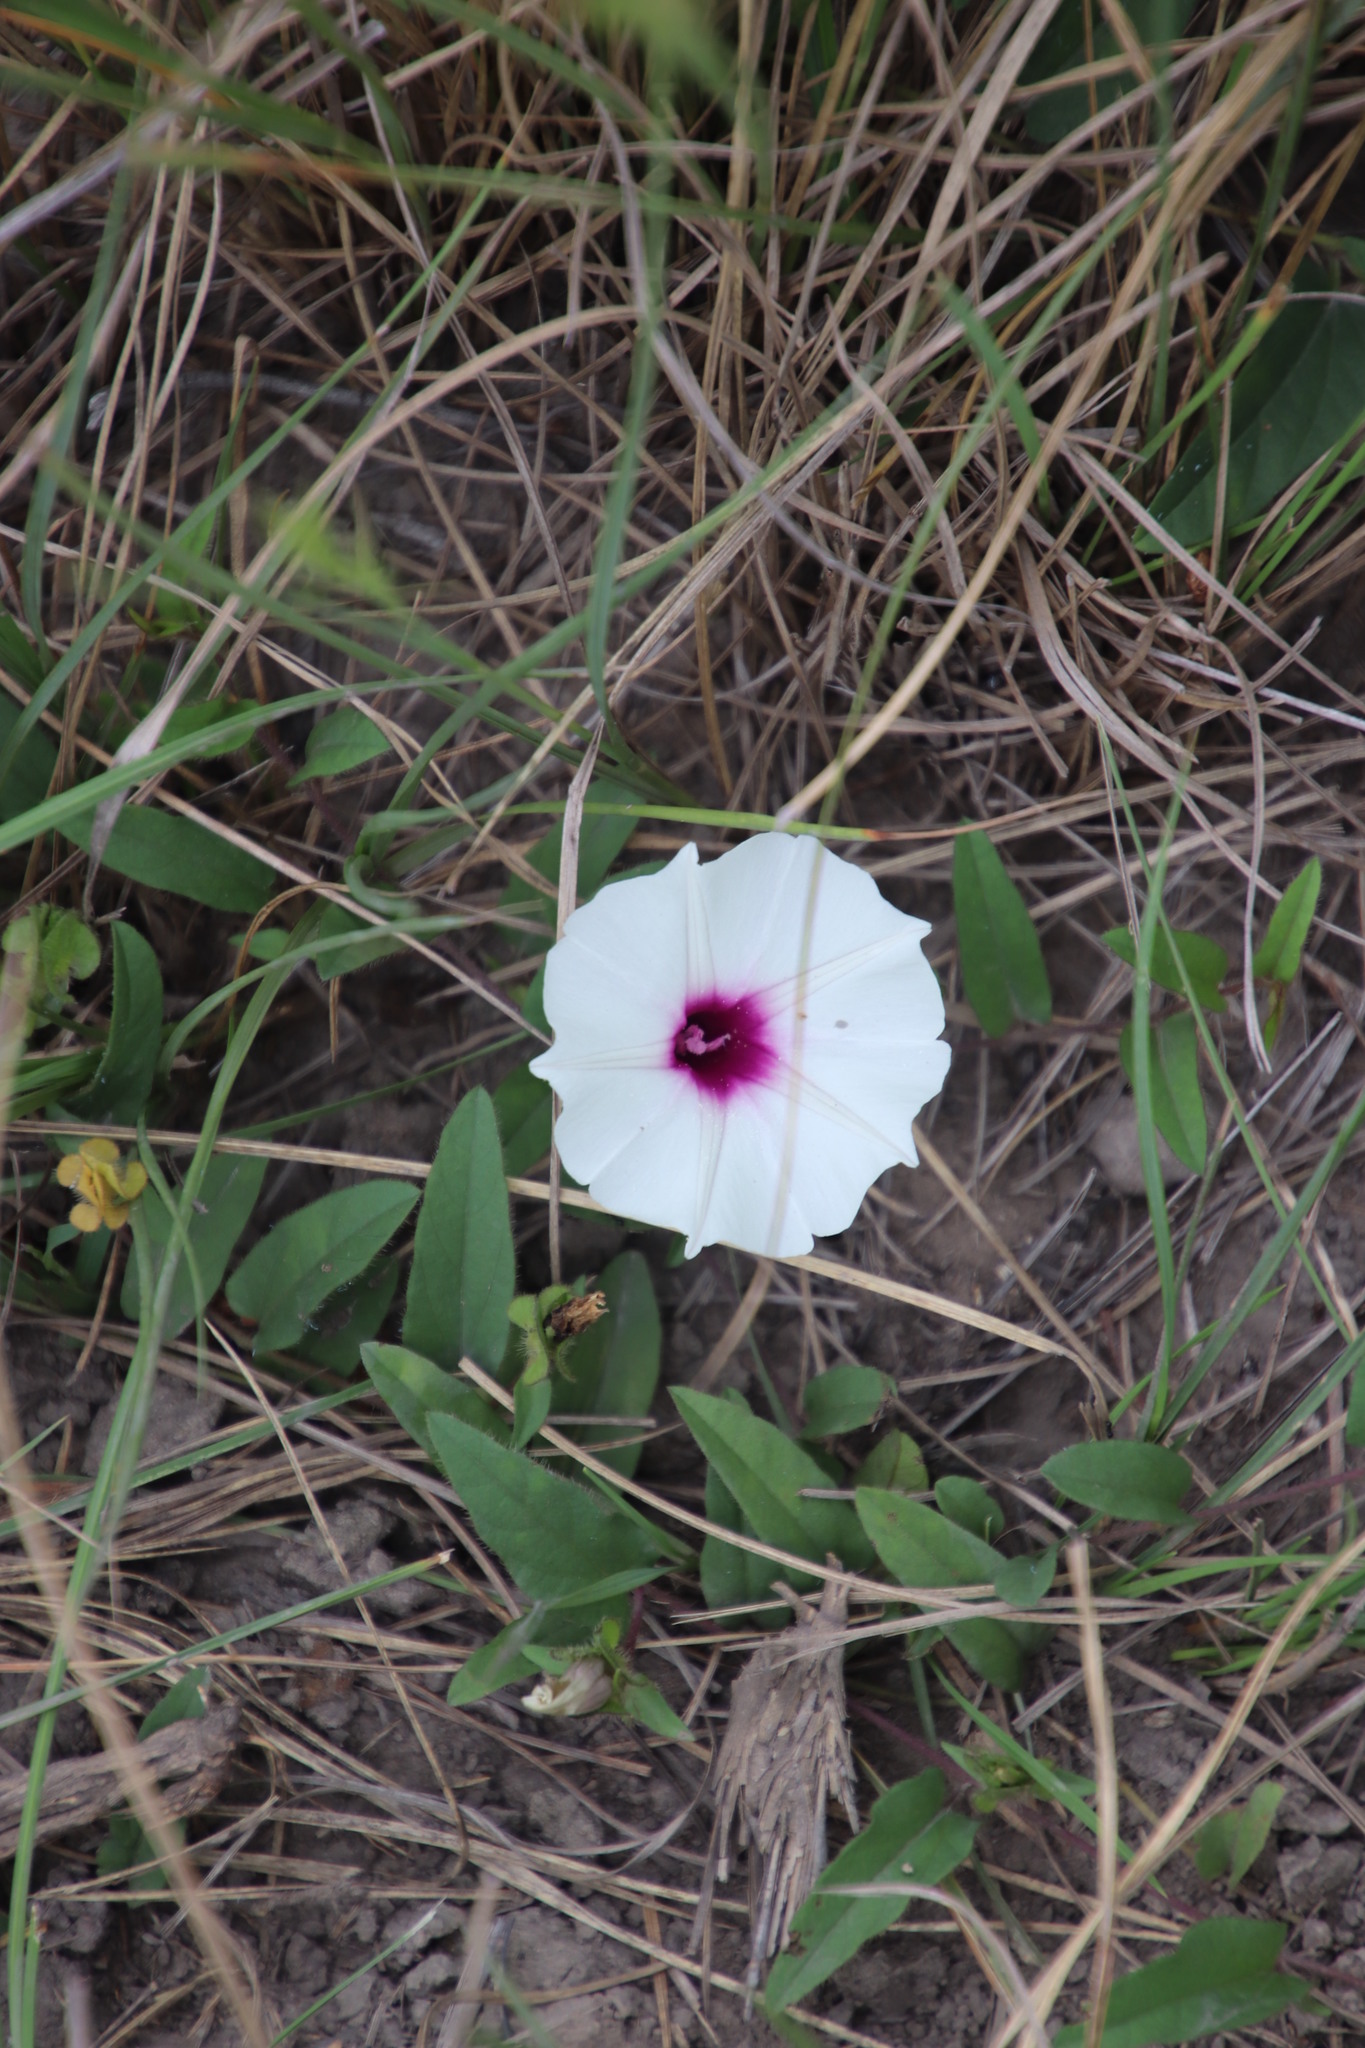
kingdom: Plantae
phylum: Tracheophyta
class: Magnoliopsida
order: Solanales
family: Convolvulaceae
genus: Ipomoea
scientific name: Ipomoea crassipes
